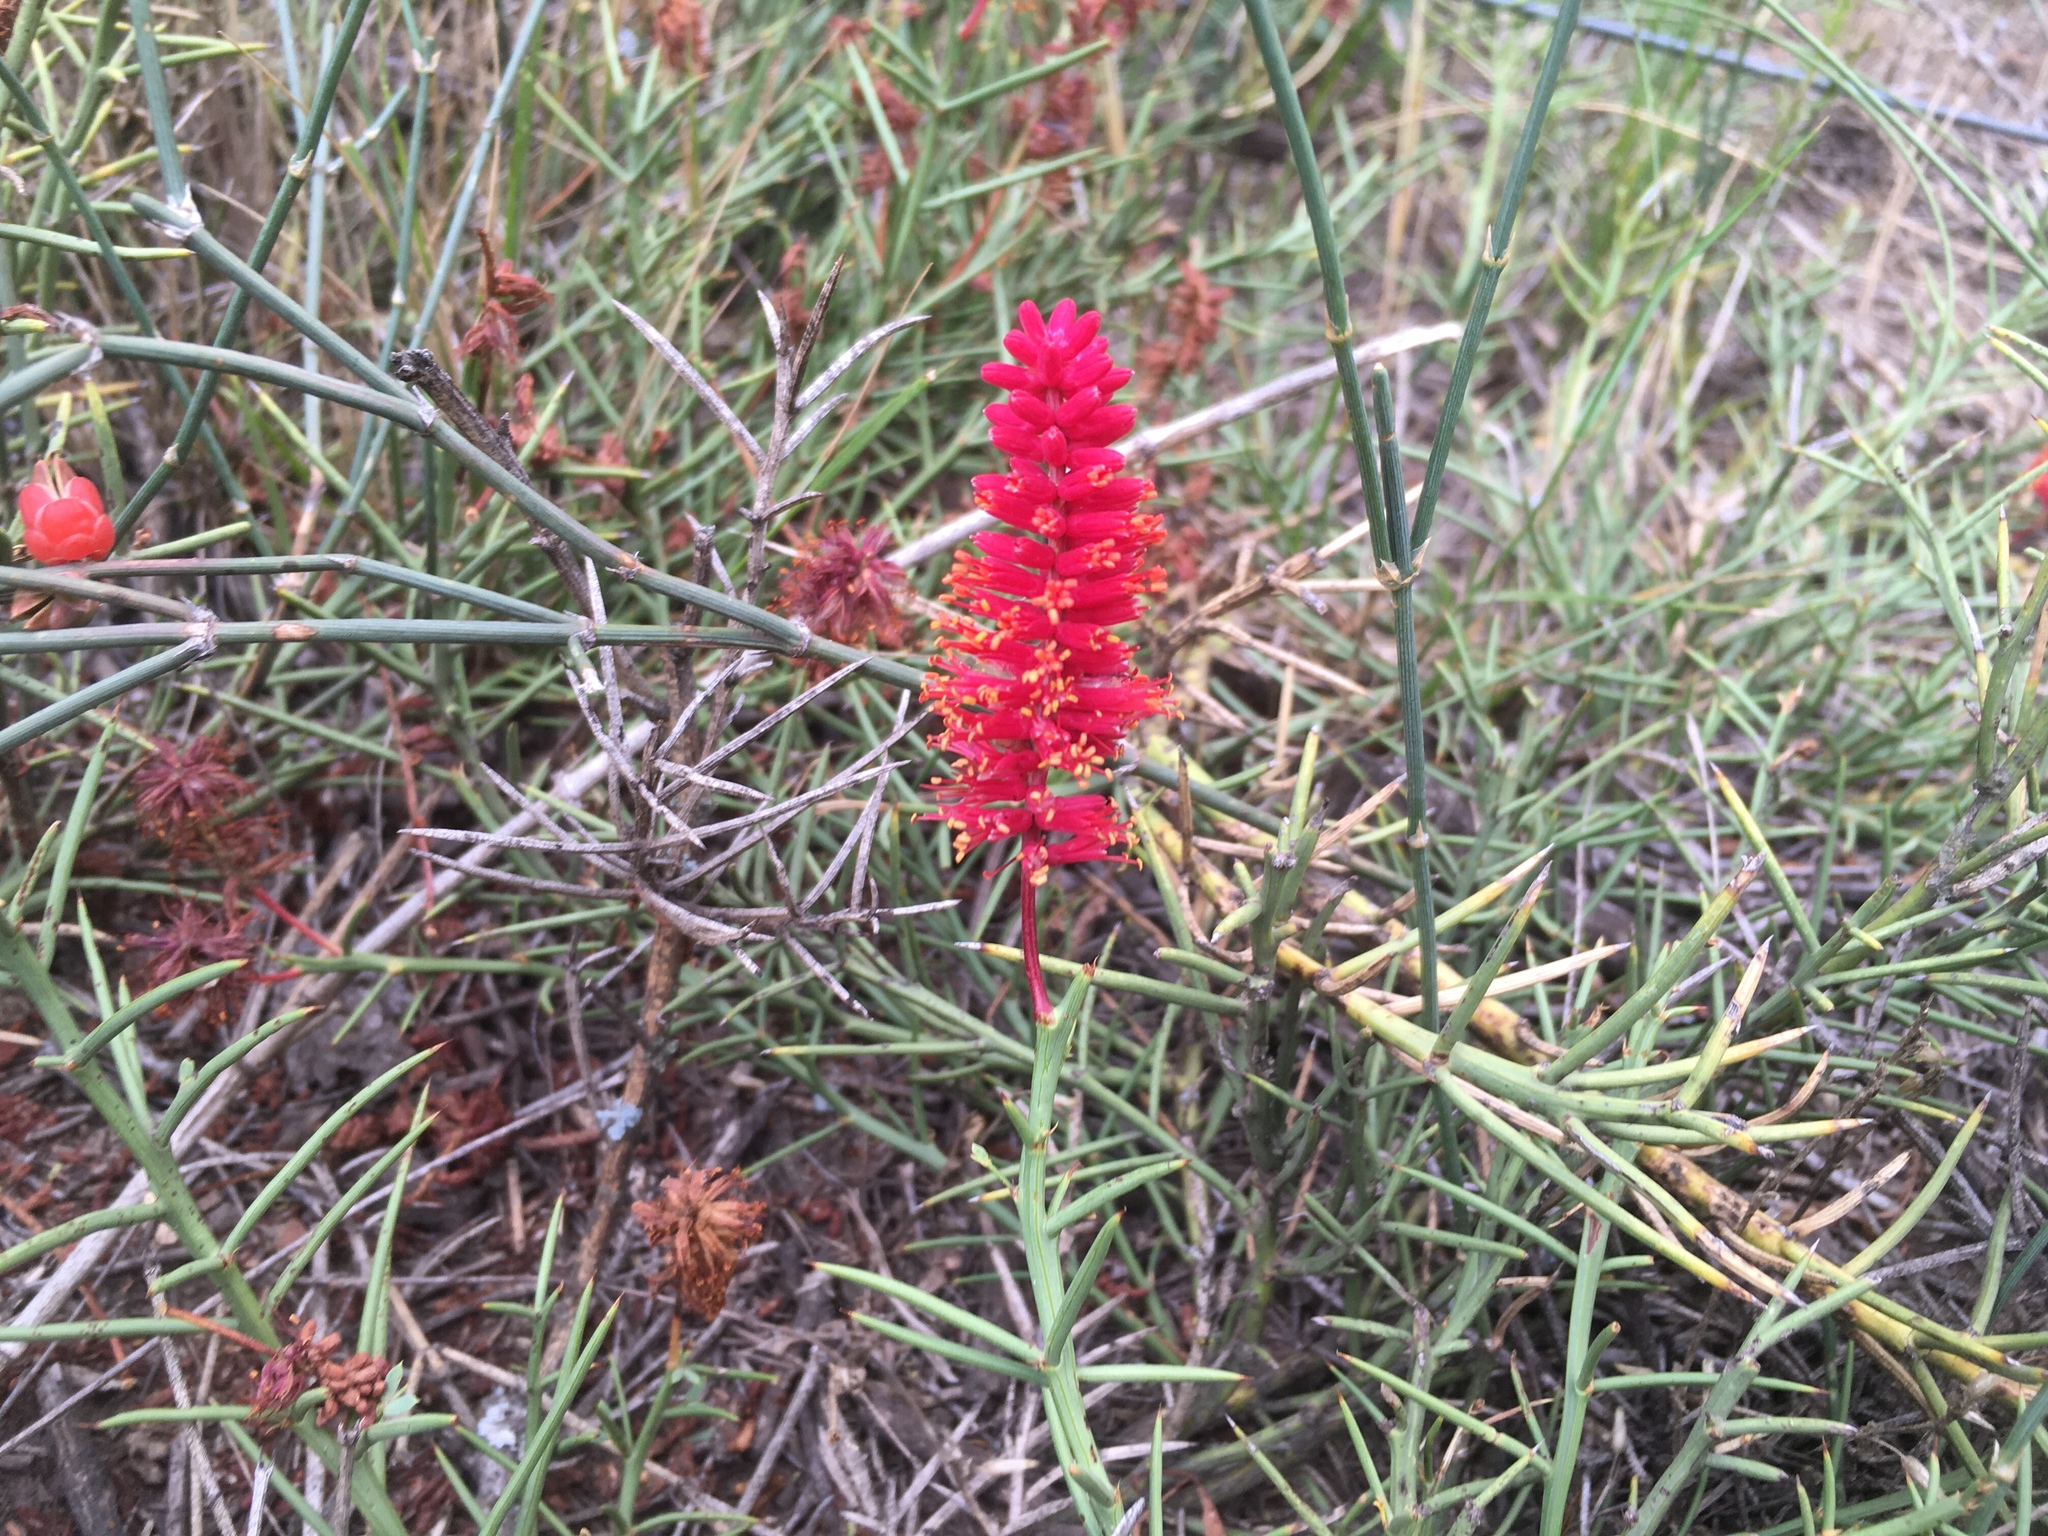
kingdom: Plantae
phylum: Tracheophyta
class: Magnoliopsida
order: Fabales
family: Fabaceae
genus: Prosopis
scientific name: Prosopis humilis
